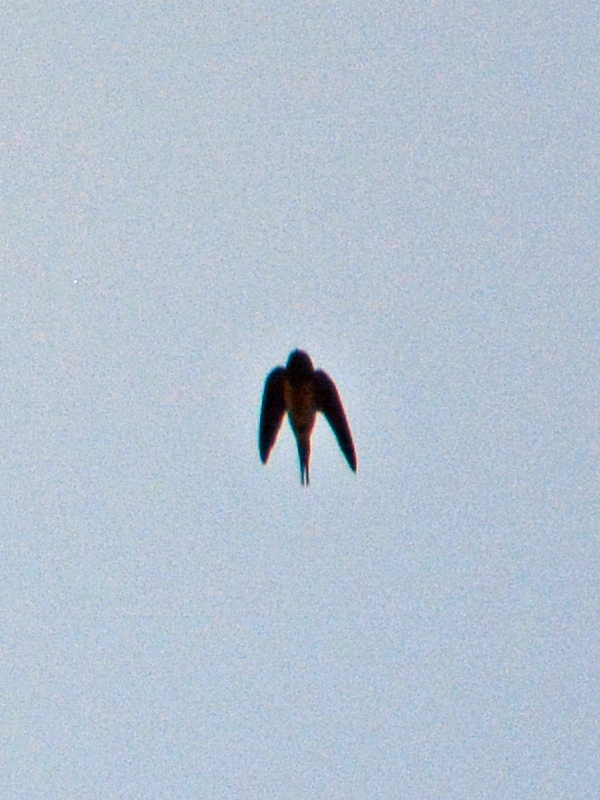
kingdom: Animalia
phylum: Chordata
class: Aves
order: Passeriformes
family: Hirundinidae
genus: Hirundo
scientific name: Hirundo rustica
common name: Barn swallow
